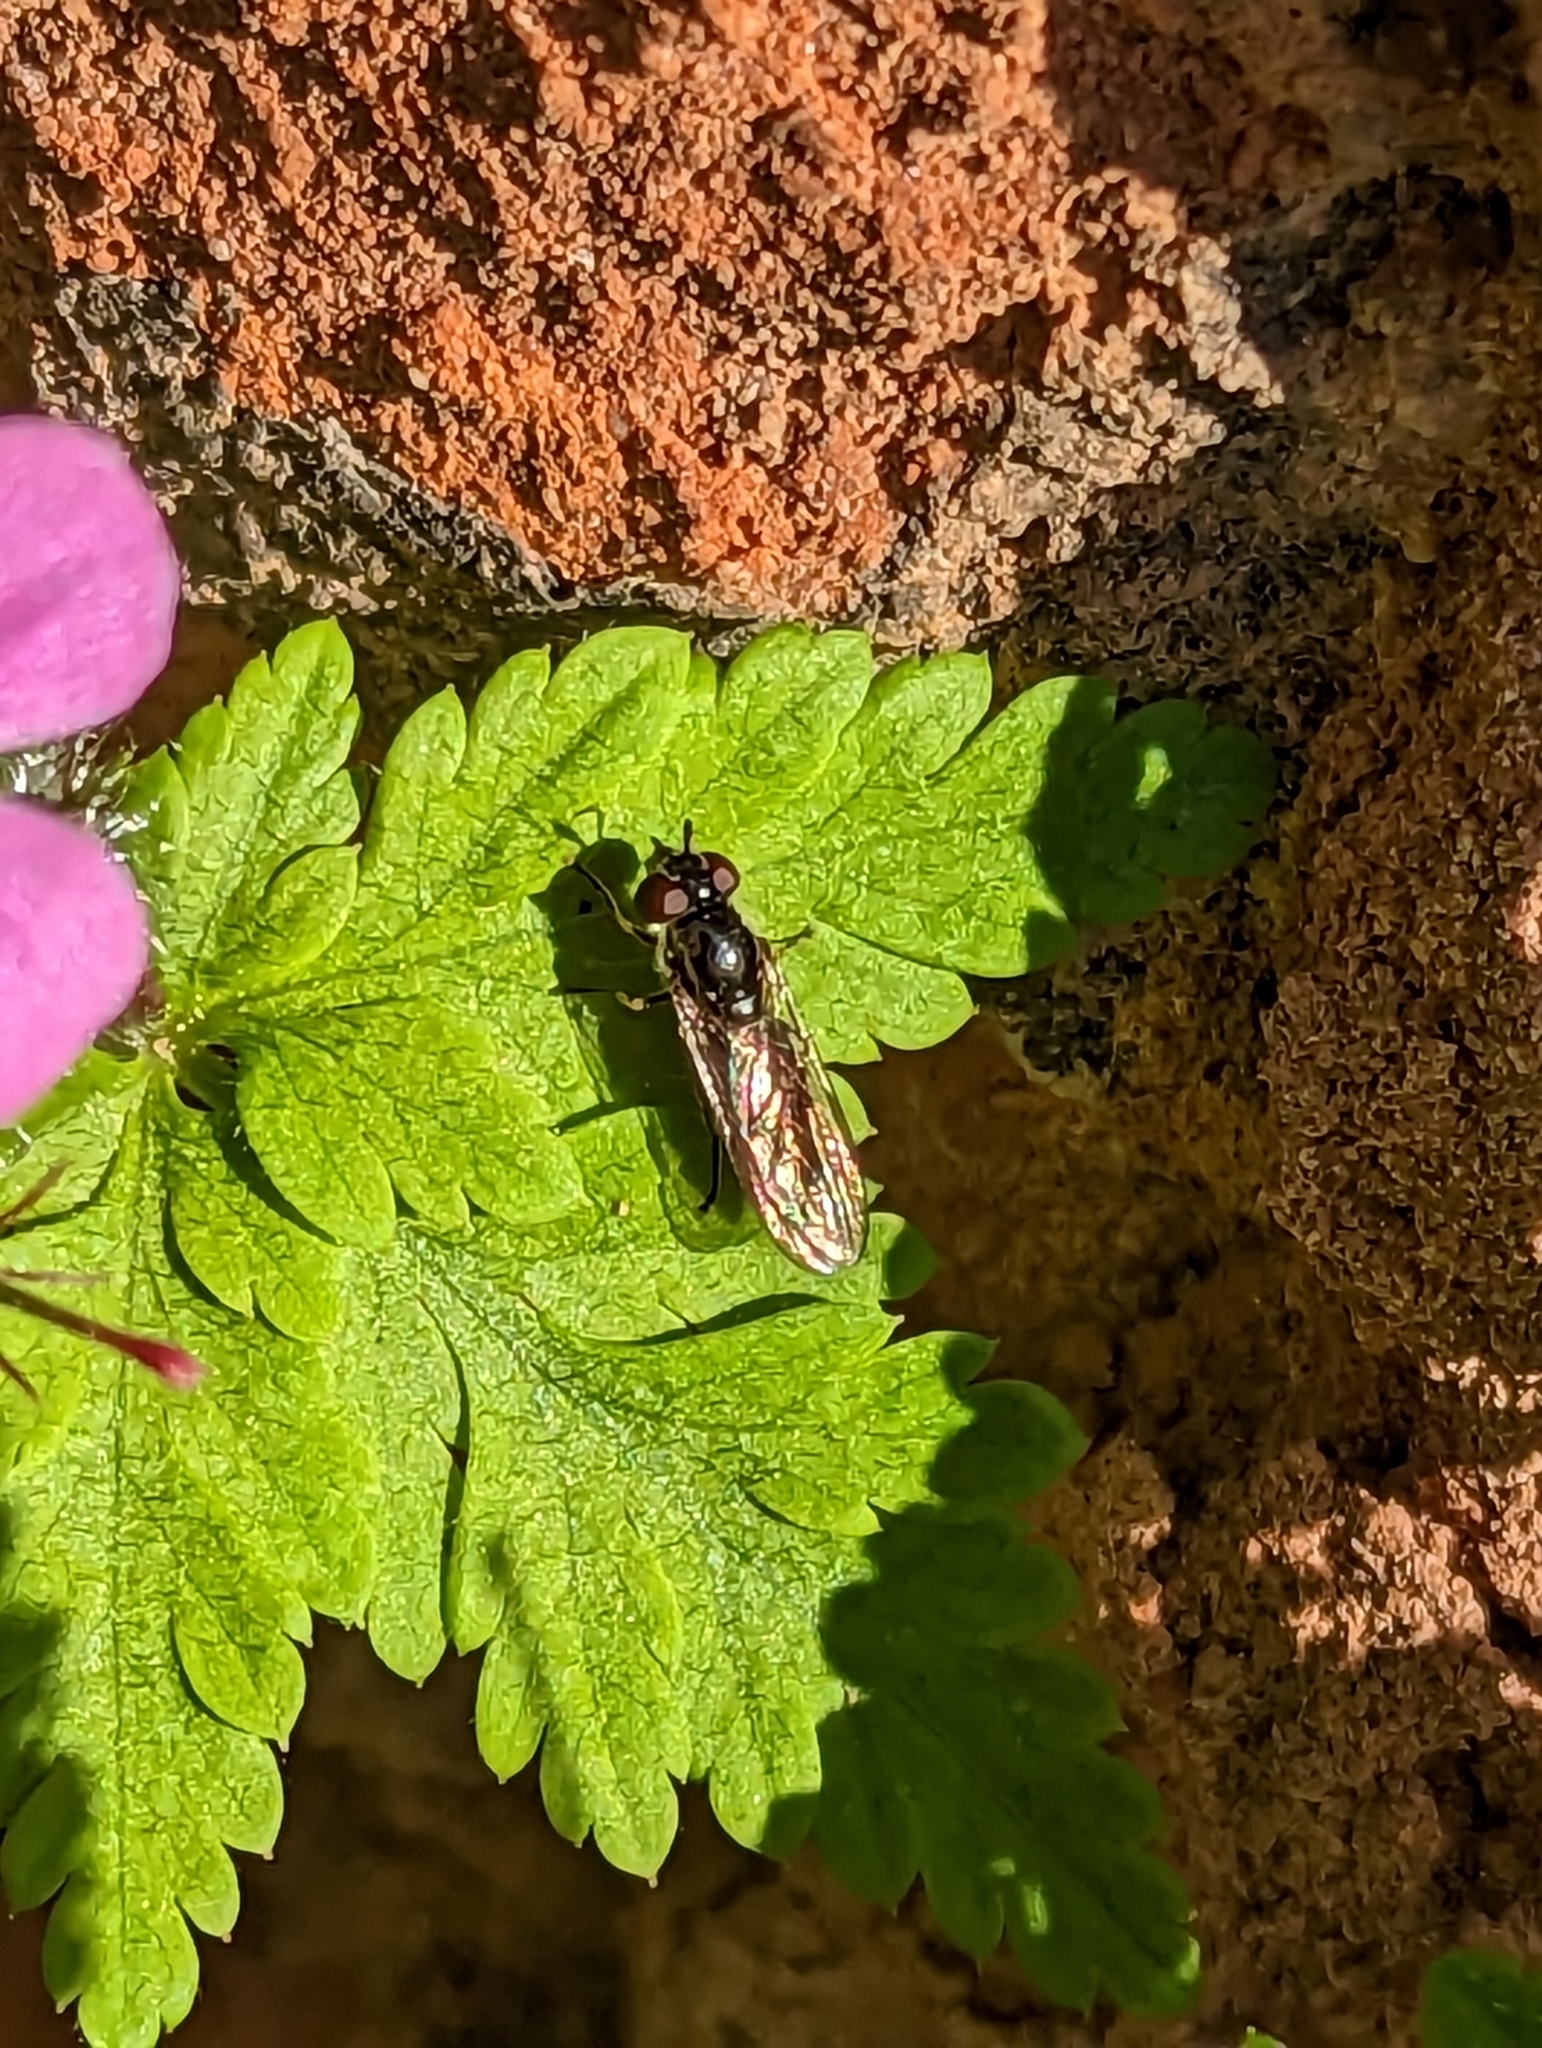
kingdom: Animalia
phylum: Arthropoda
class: Insecta
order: Diptera
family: Syrphidae
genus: Platycheirus
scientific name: Platycheirus albimanus
